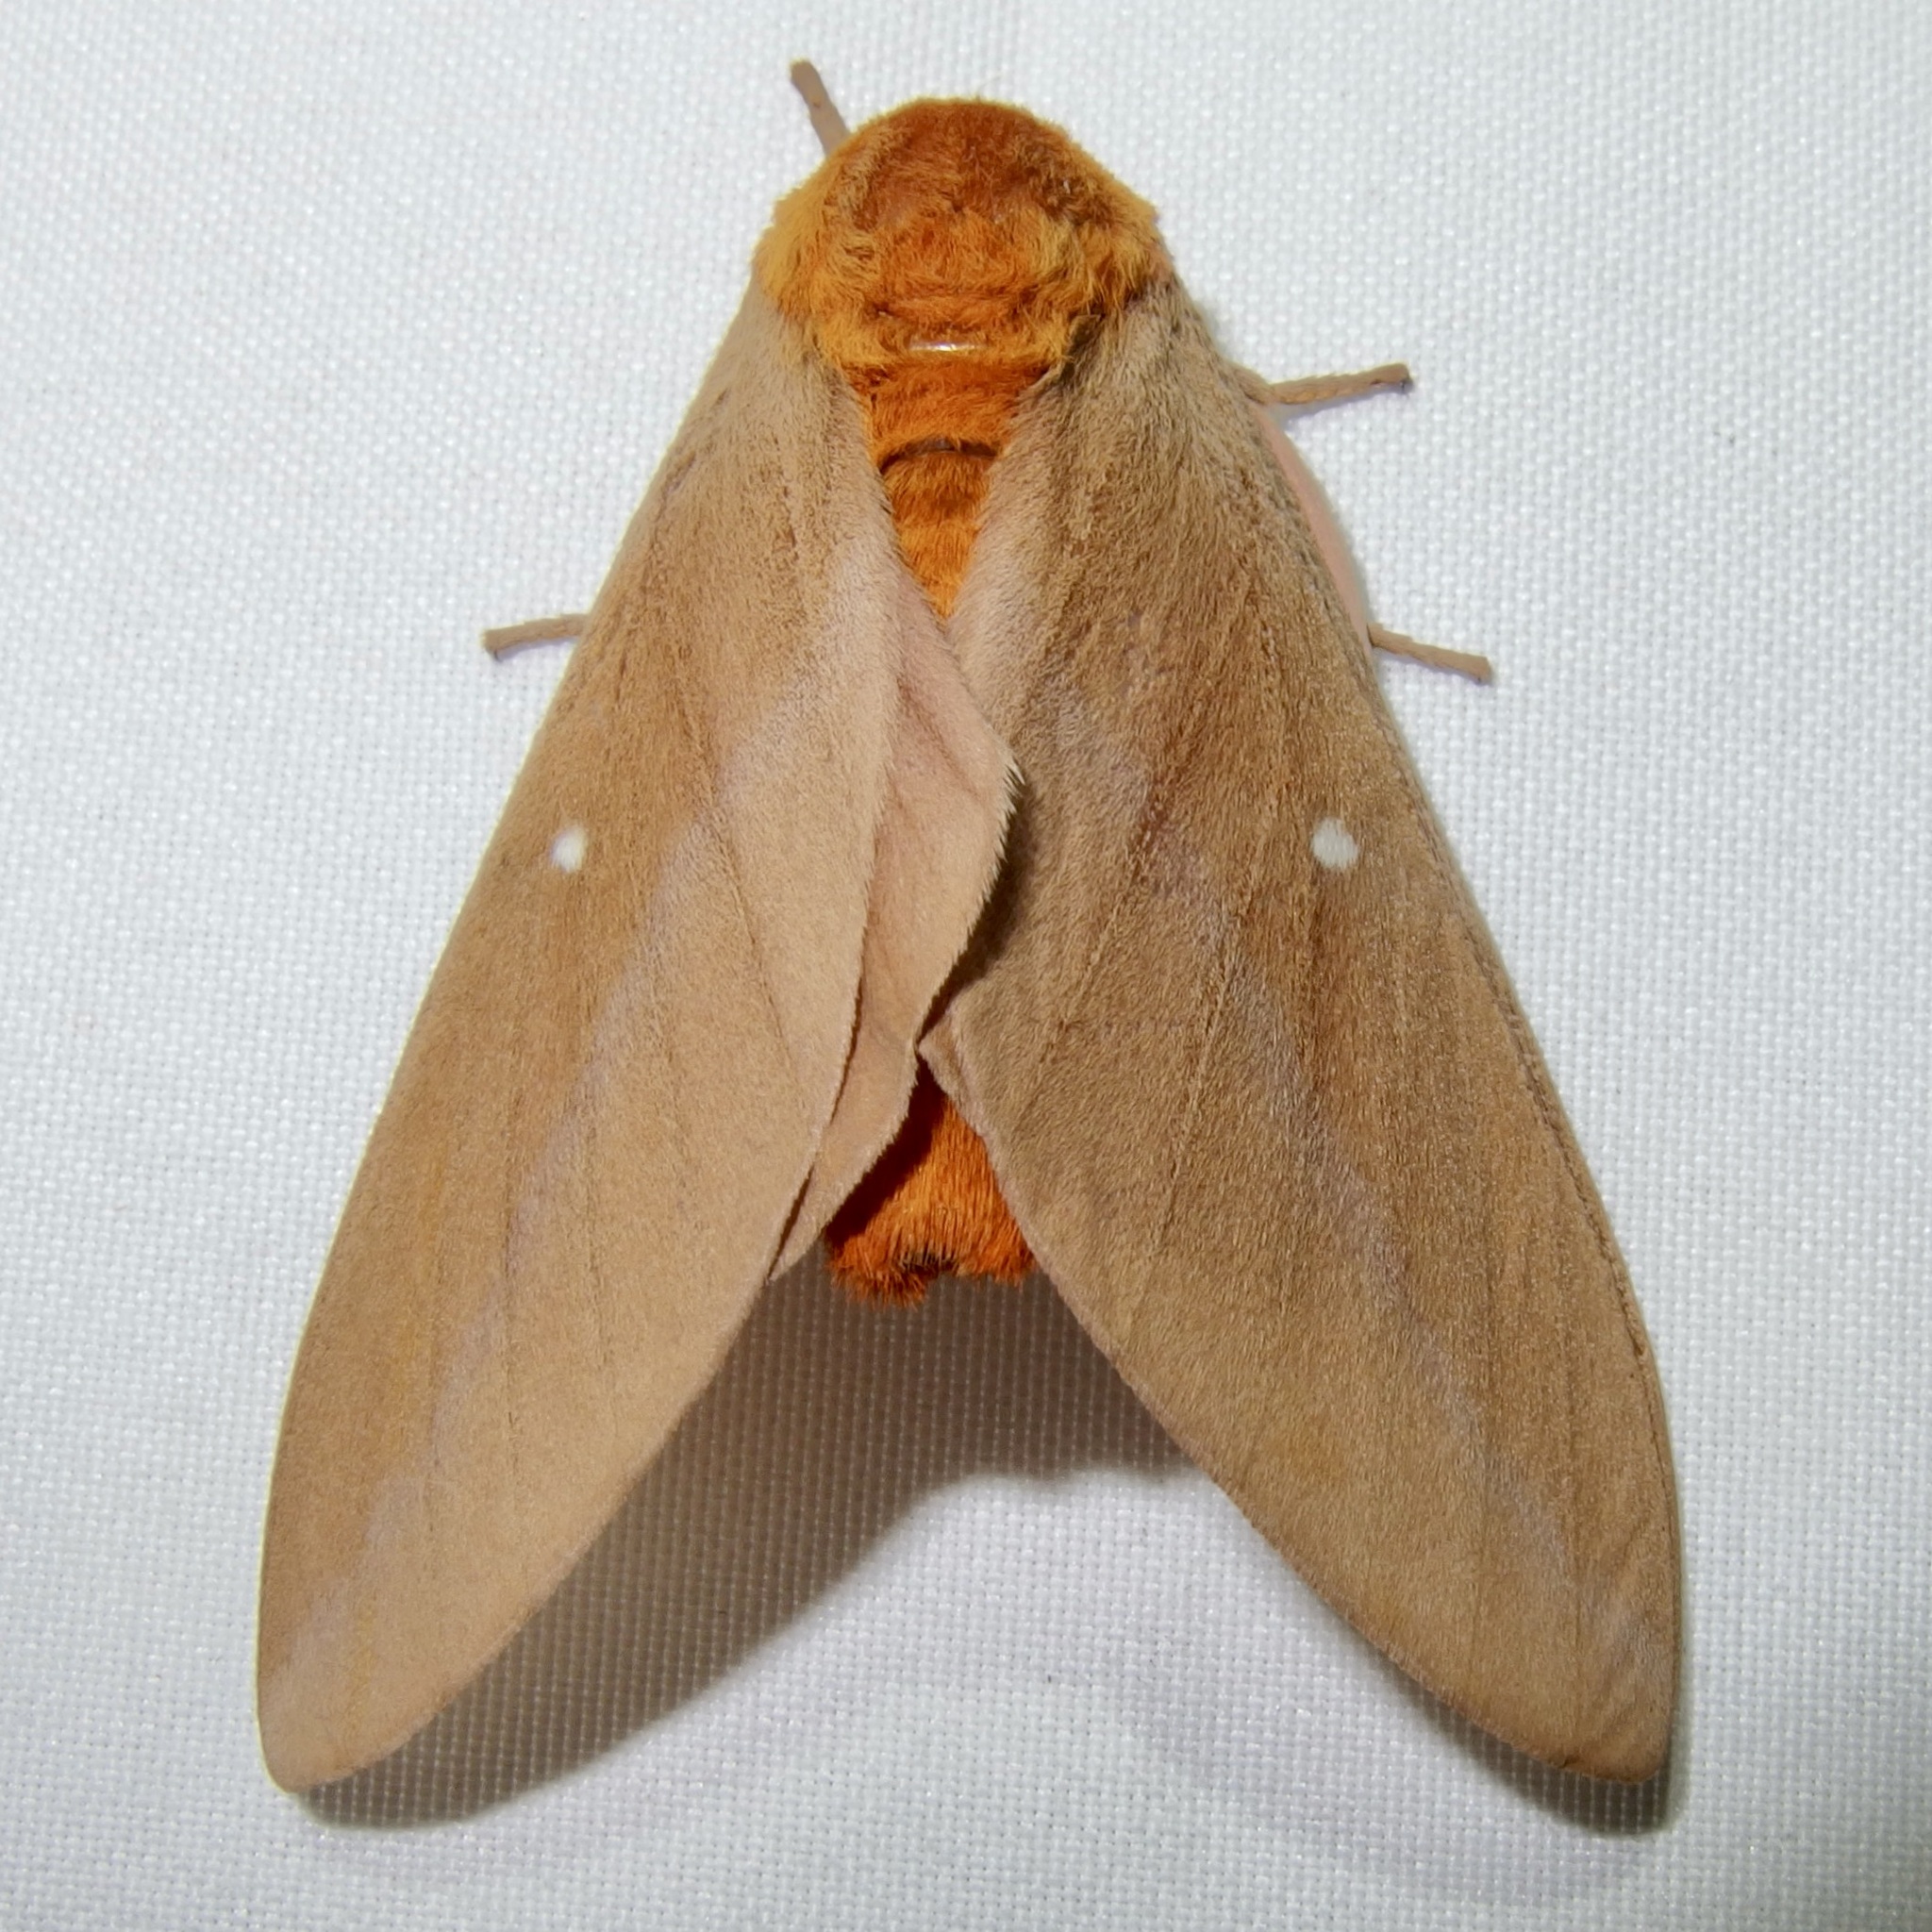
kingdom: Animalia
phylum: Arthropoda
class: Insecta
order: Lepidoptera
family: Saturniidae
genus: Anisota
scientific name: Anisota oslari
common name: Oslar's oakworm moth
